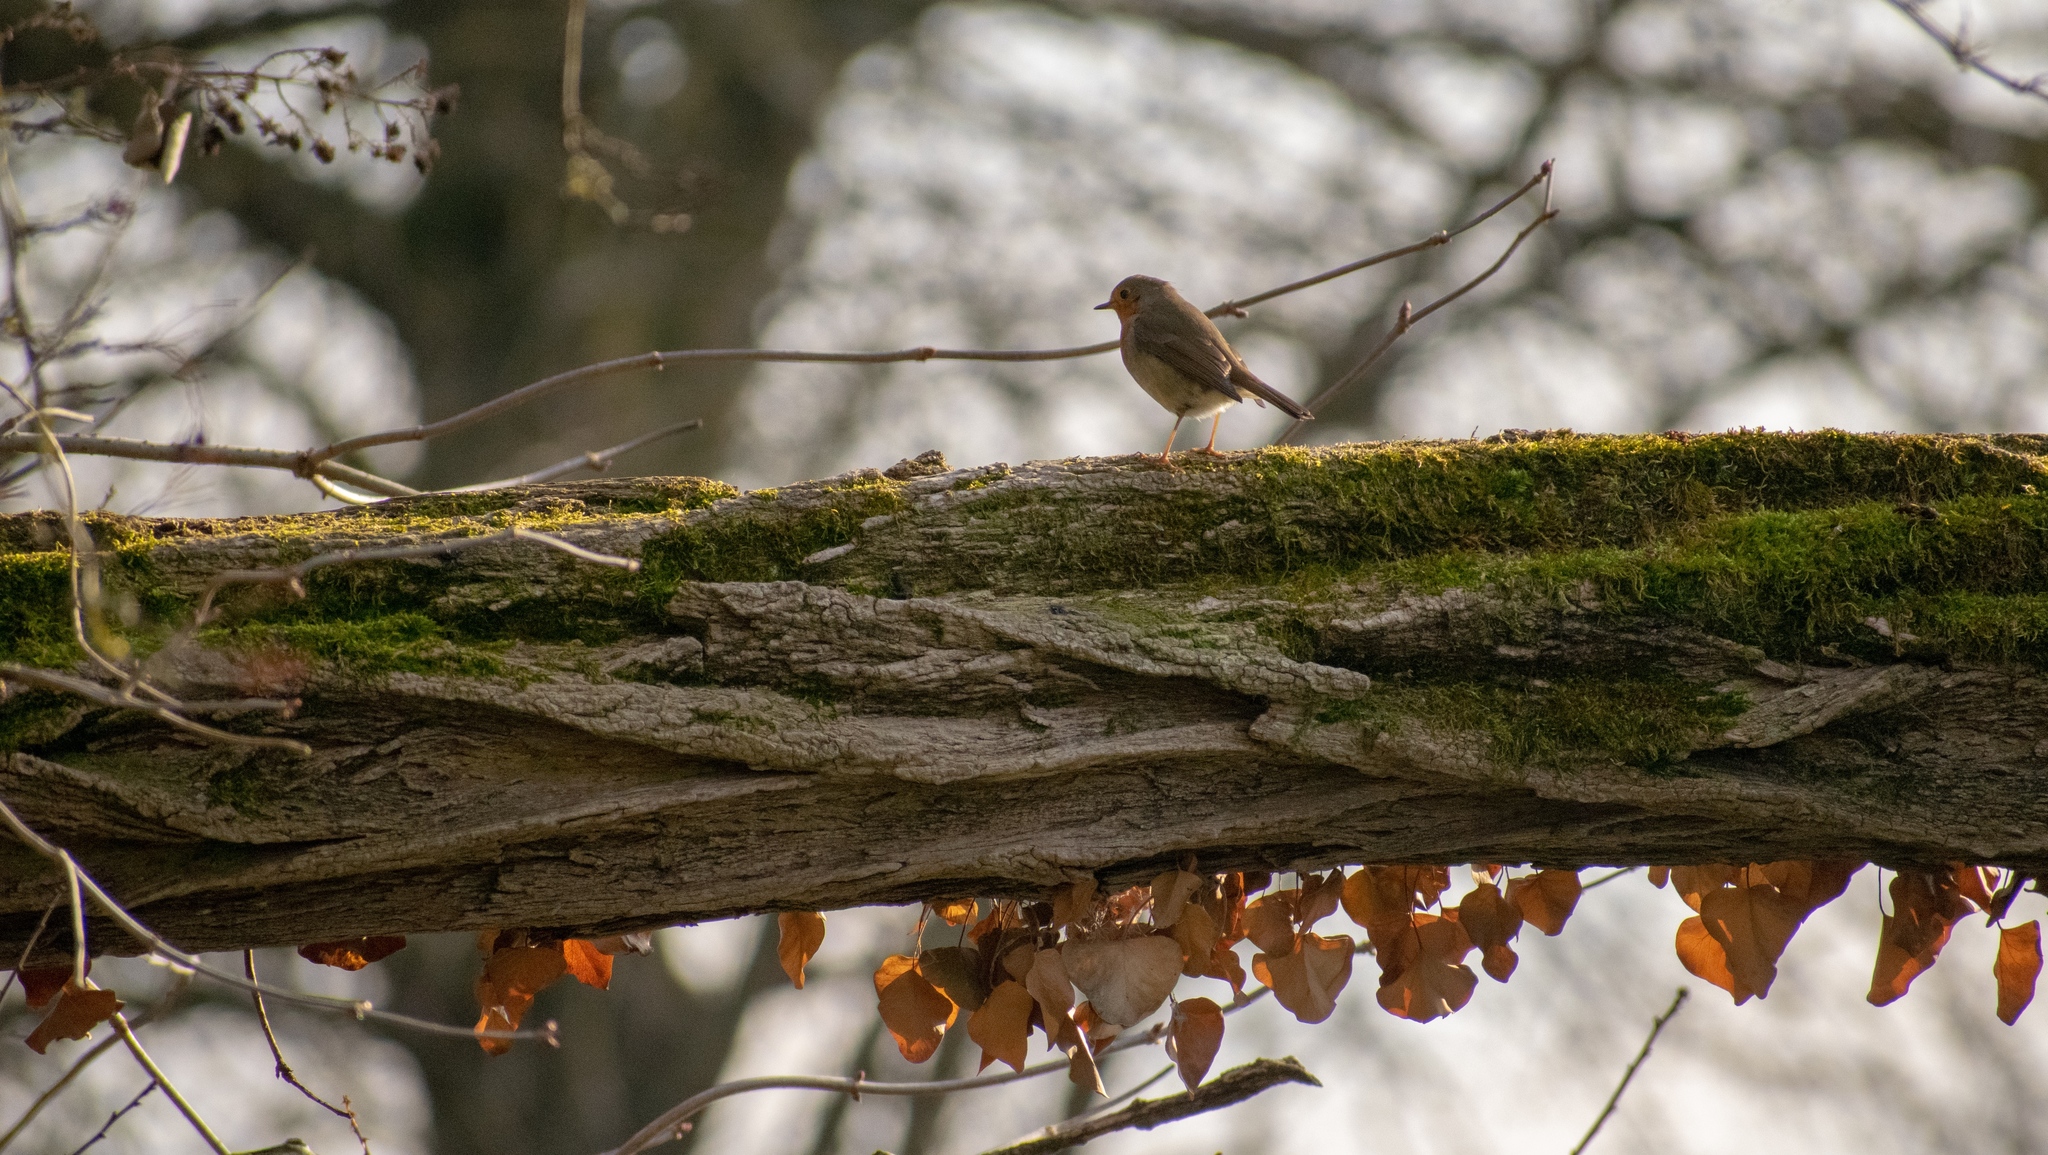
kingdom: Animalia
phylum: Chordata
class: Aves
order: Passeriformes
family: Muscicapidae
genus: Erithacus
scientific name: Erithacus rubecula
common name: European robin
